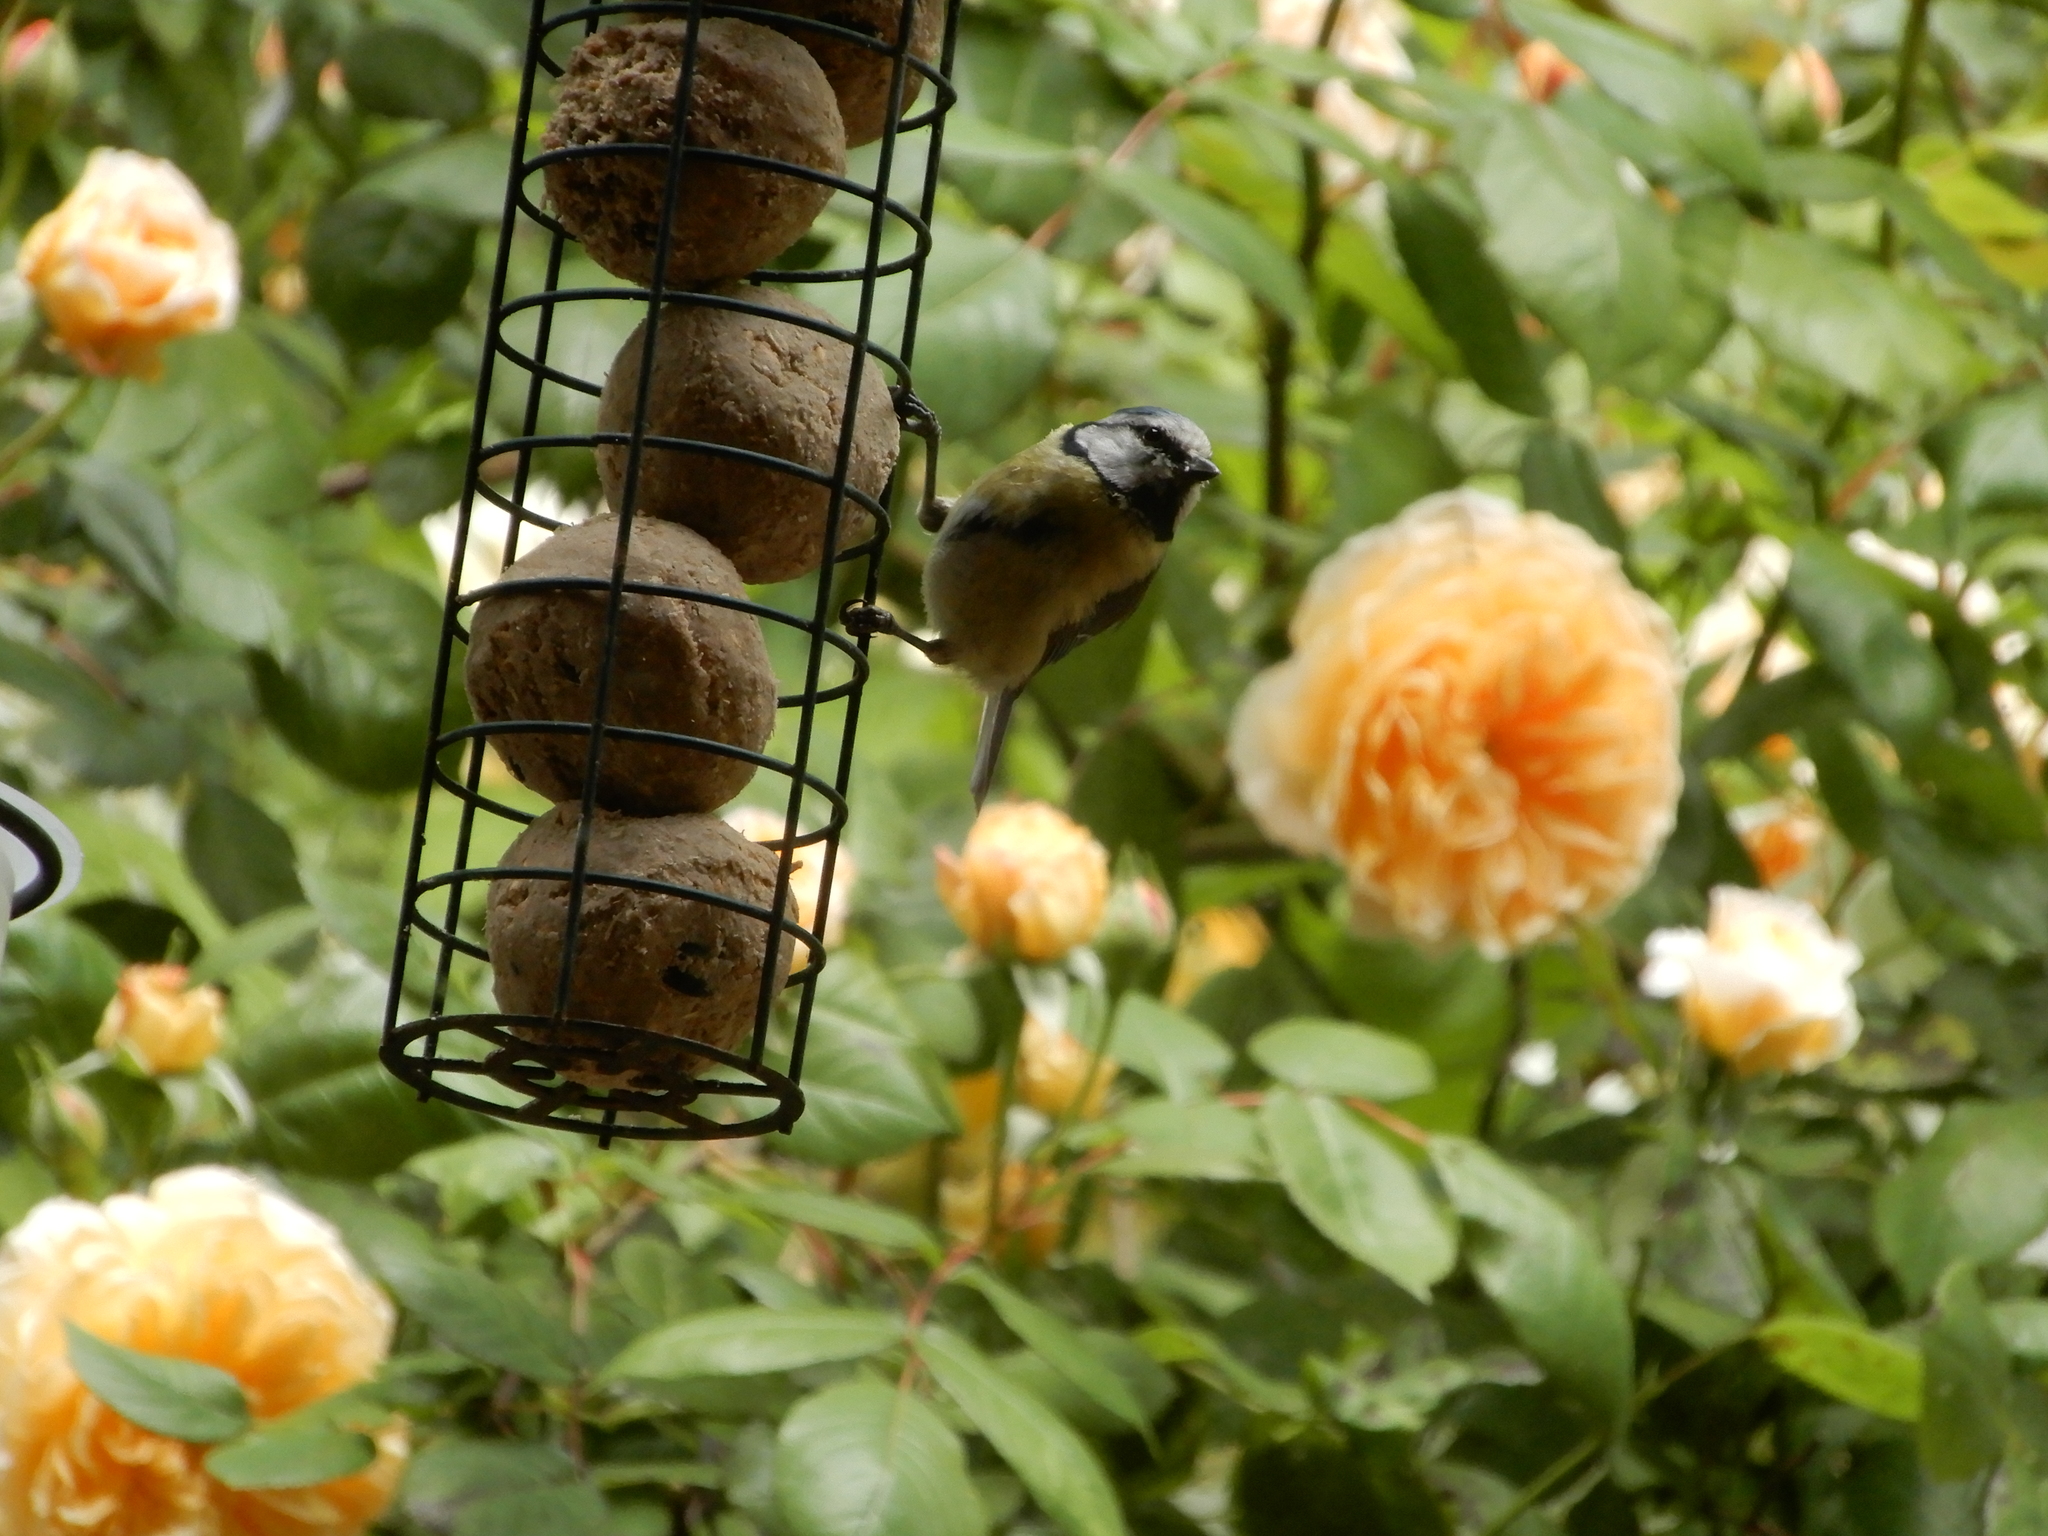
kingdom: Animalia
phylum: Chordata
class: Aves
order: Passeriformes
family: Paridae
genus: Cyanistes
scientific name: Cyanistes caeruleus
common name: Eurasian blue tit
